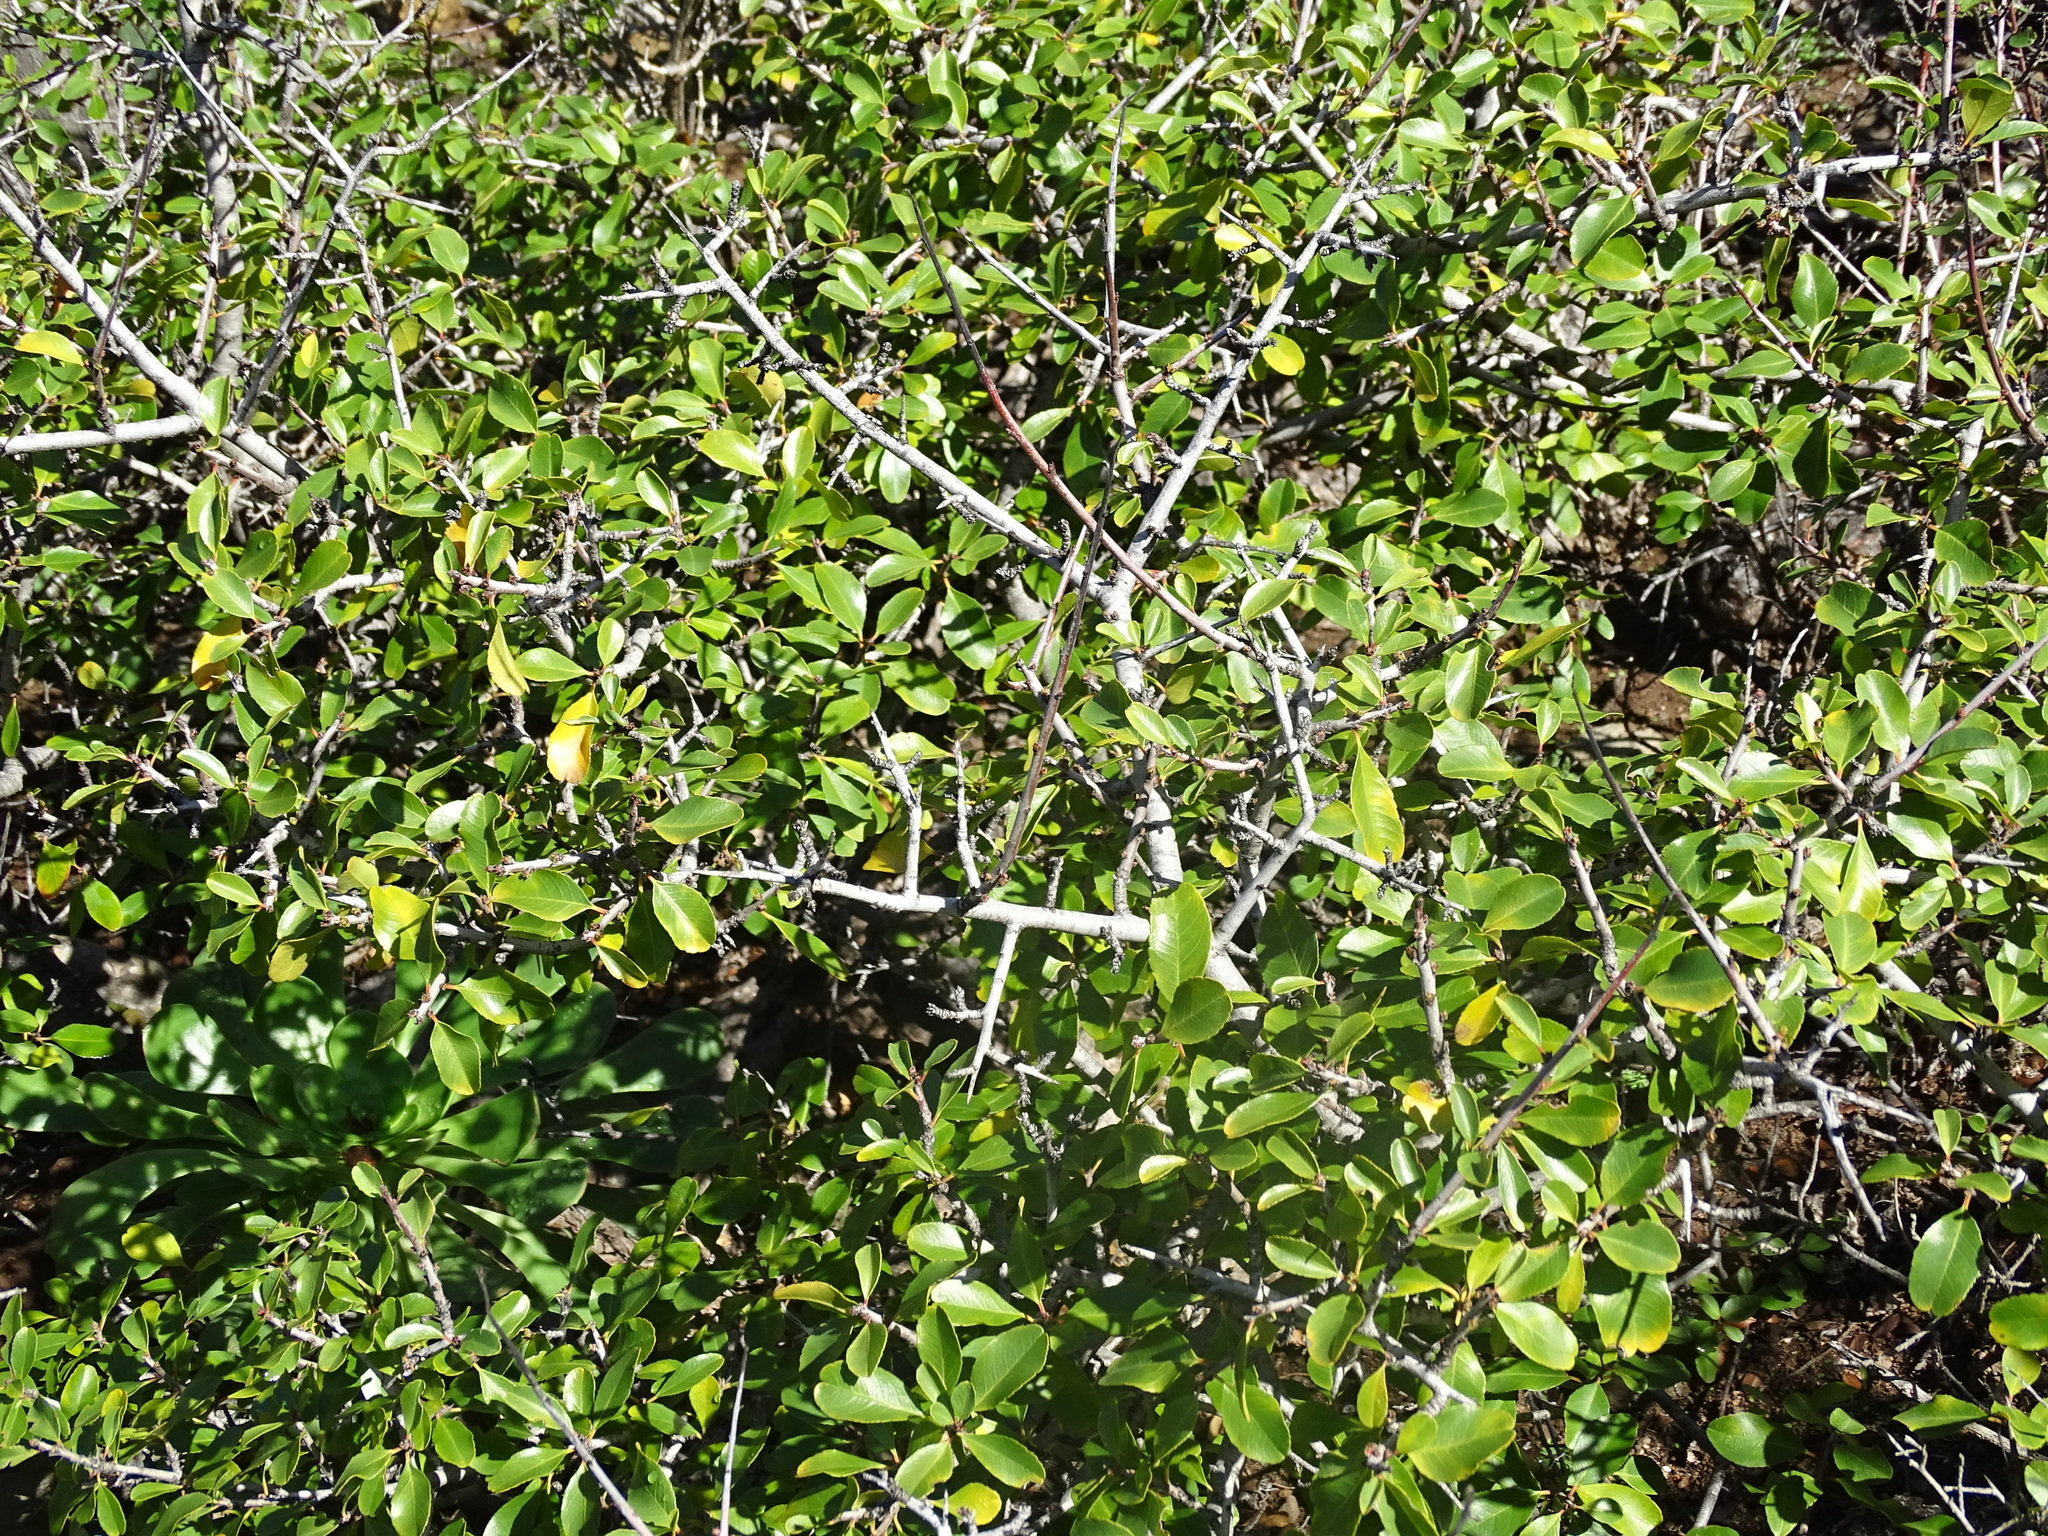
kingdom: Plantae
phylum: Tracheophyta
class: Magnoliopsida
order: Rosales
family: Rhamnaceae
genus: Rhamnus
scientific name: Rhamnus crenulata
